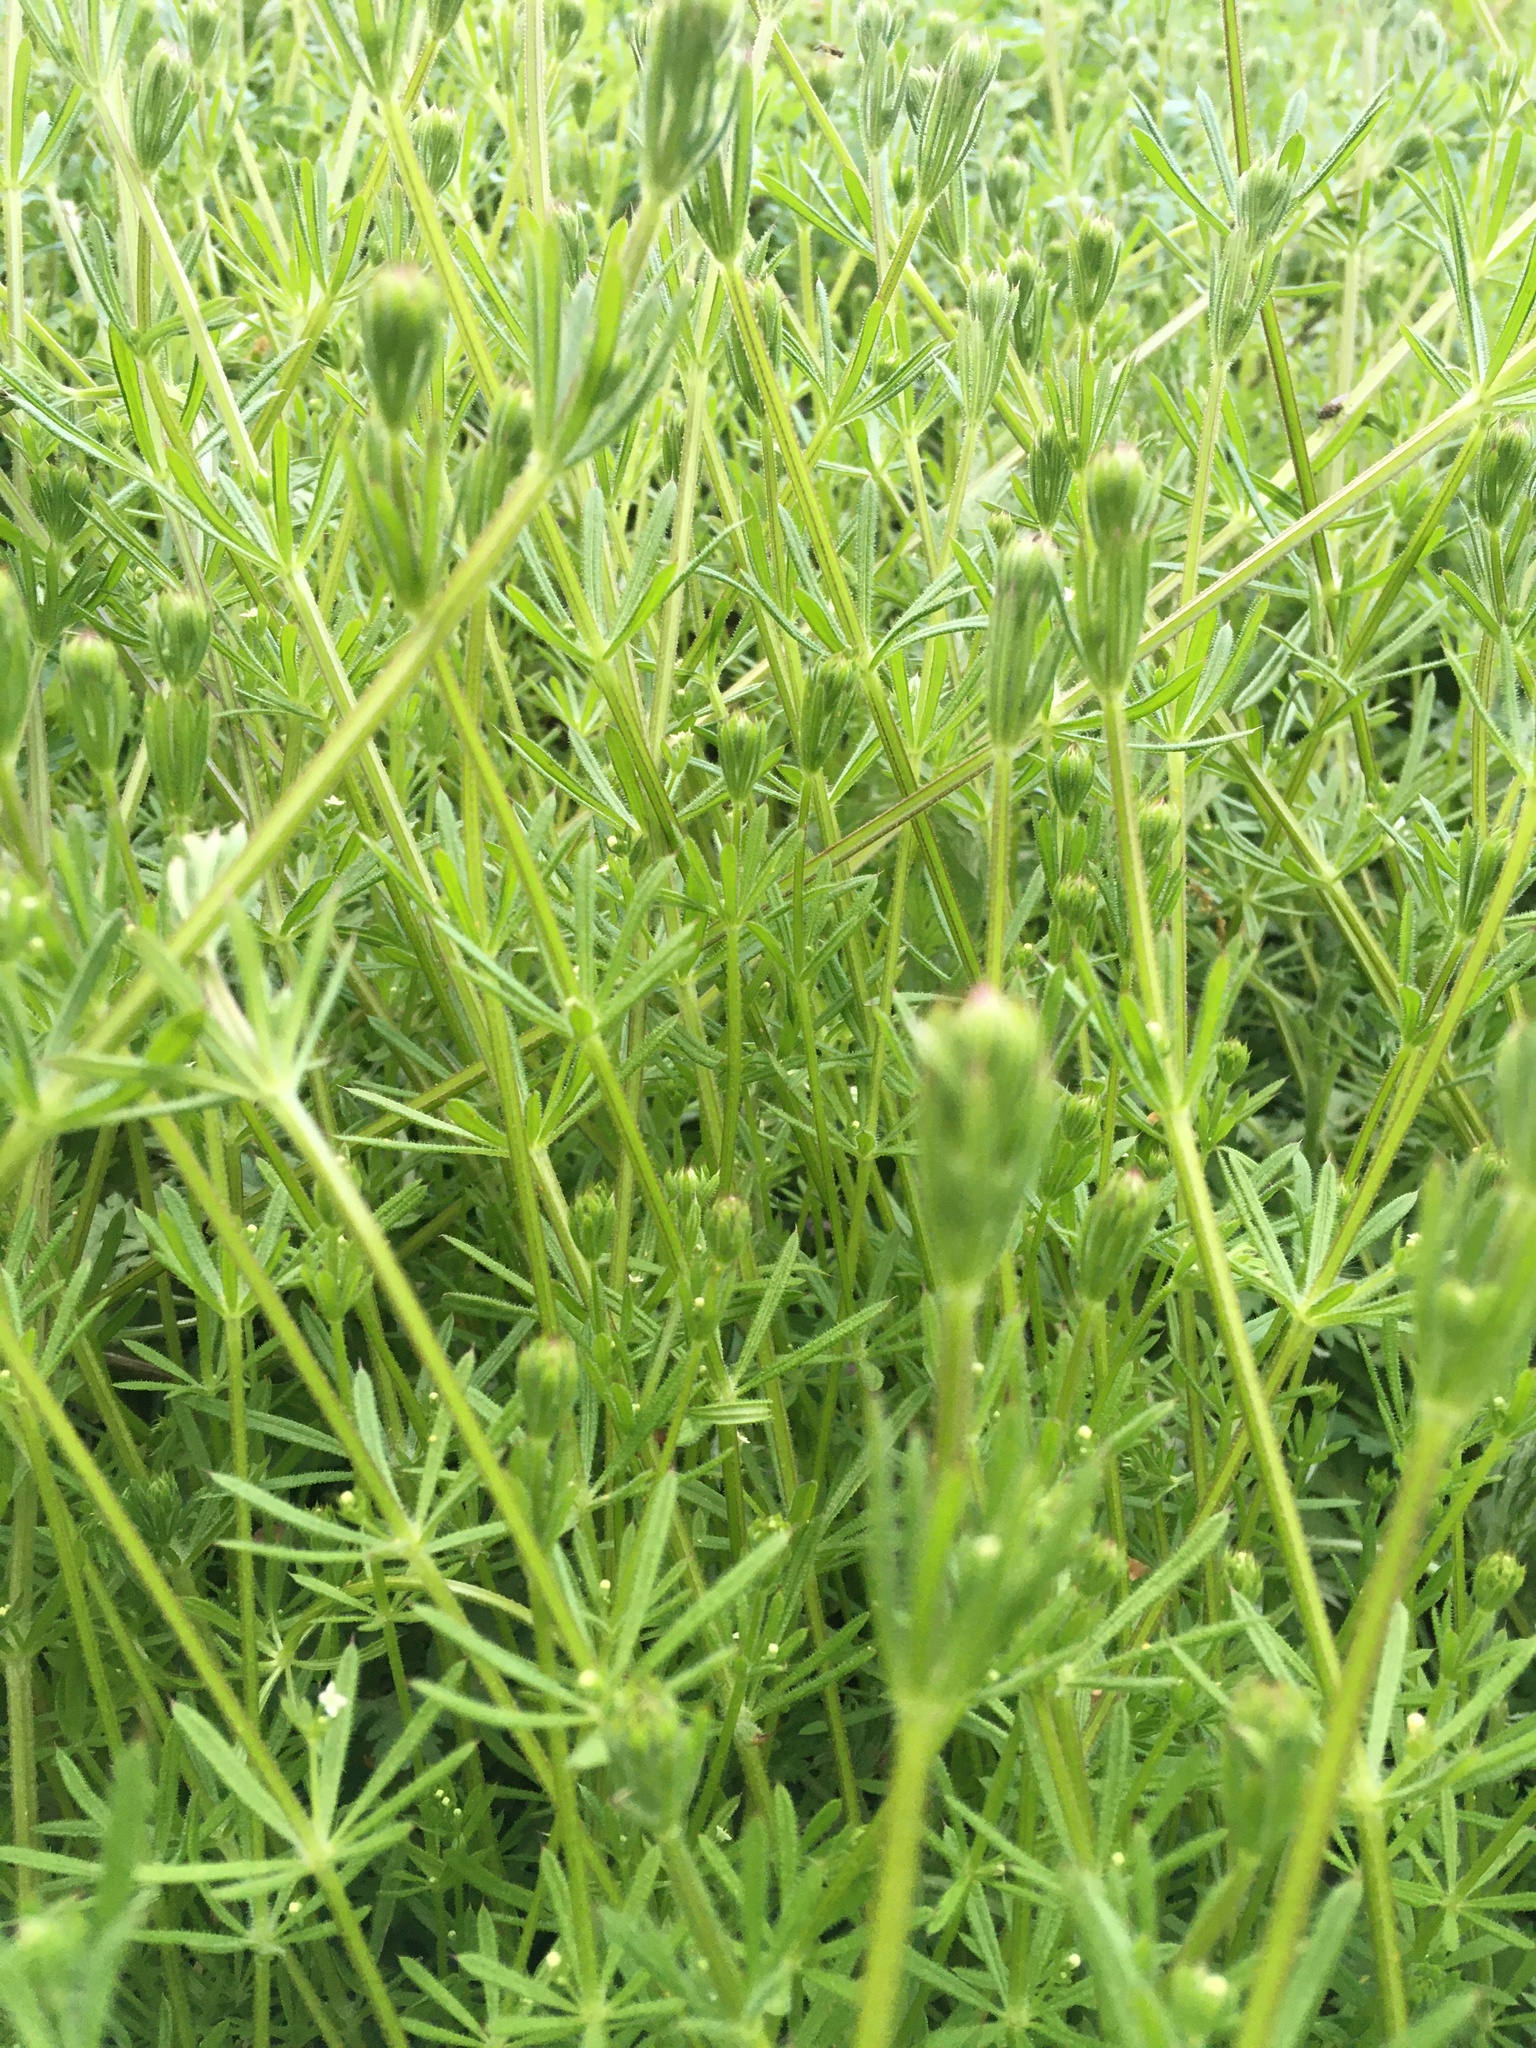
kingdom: Plantae
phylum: Tracheophyta
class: Magnoliopsida
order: Gentianales
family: Rubiaceae
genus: Galium
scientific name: Galium aparine
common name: Cleavers
